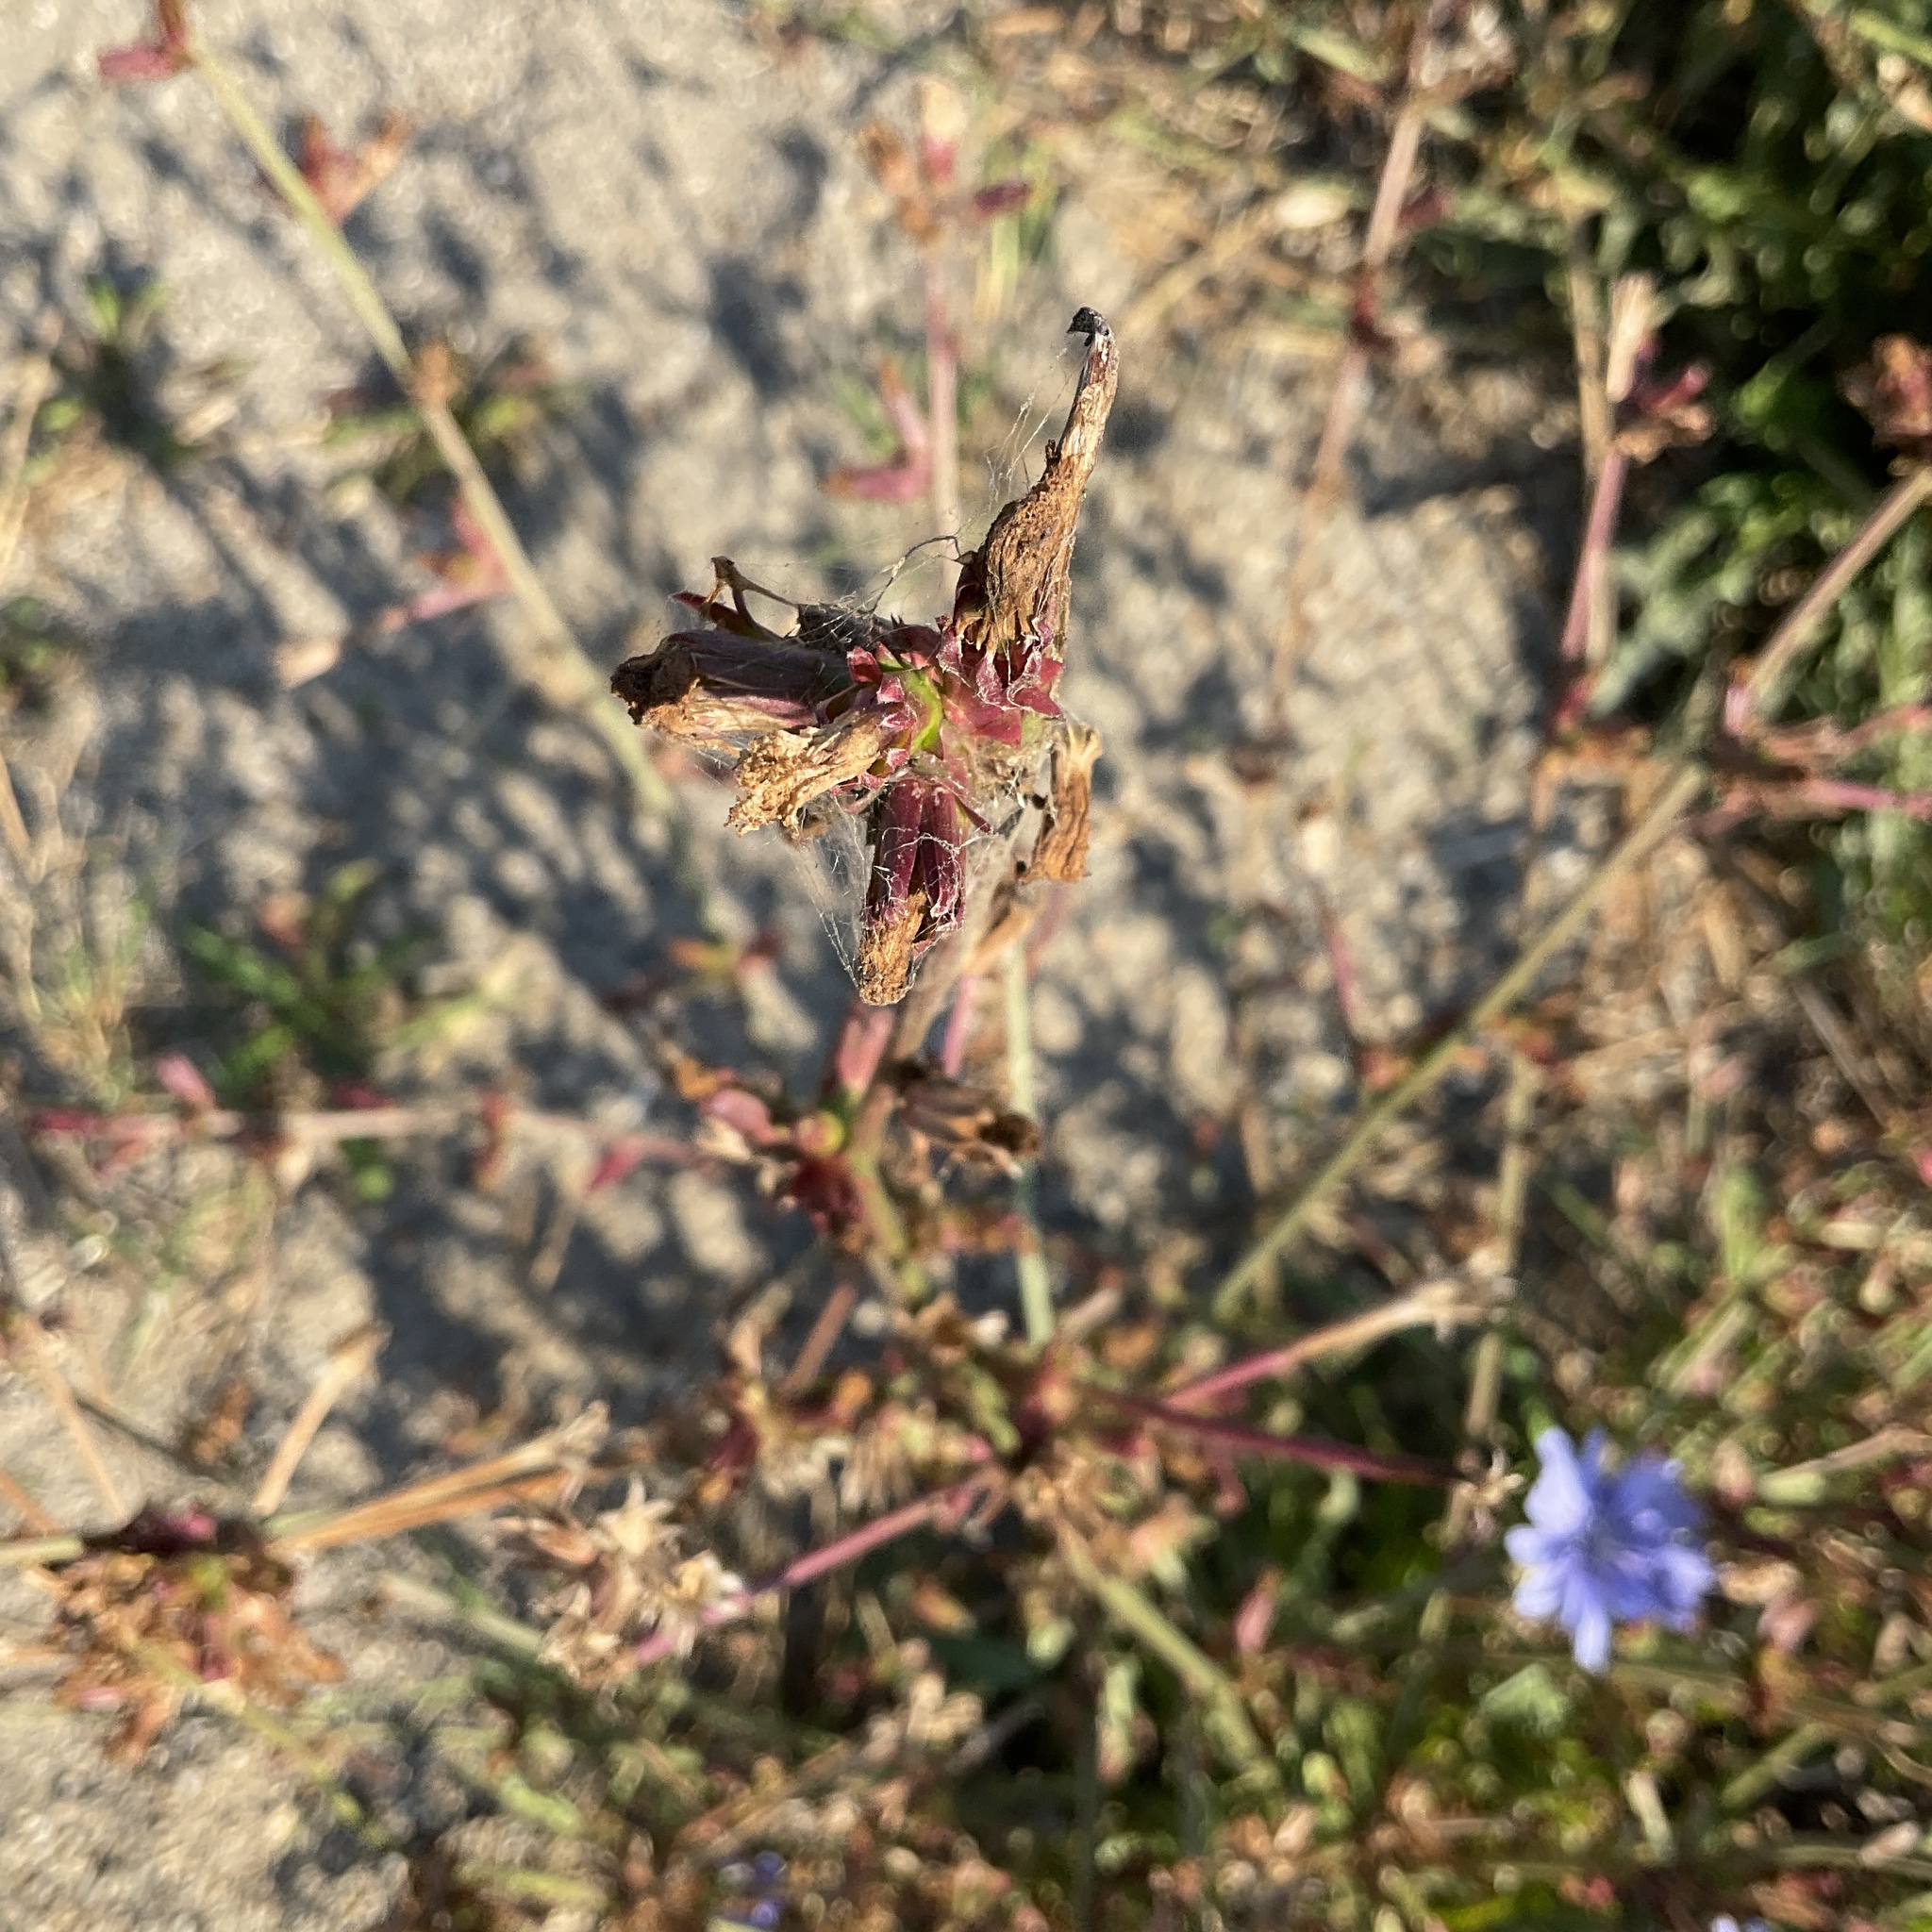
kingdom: Plantae
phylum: Tracheophyta
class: Magnoliopsida
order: Asterales
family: Asteraceae
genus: Cichorium
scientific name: Cichorium intybus
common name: Chicory
